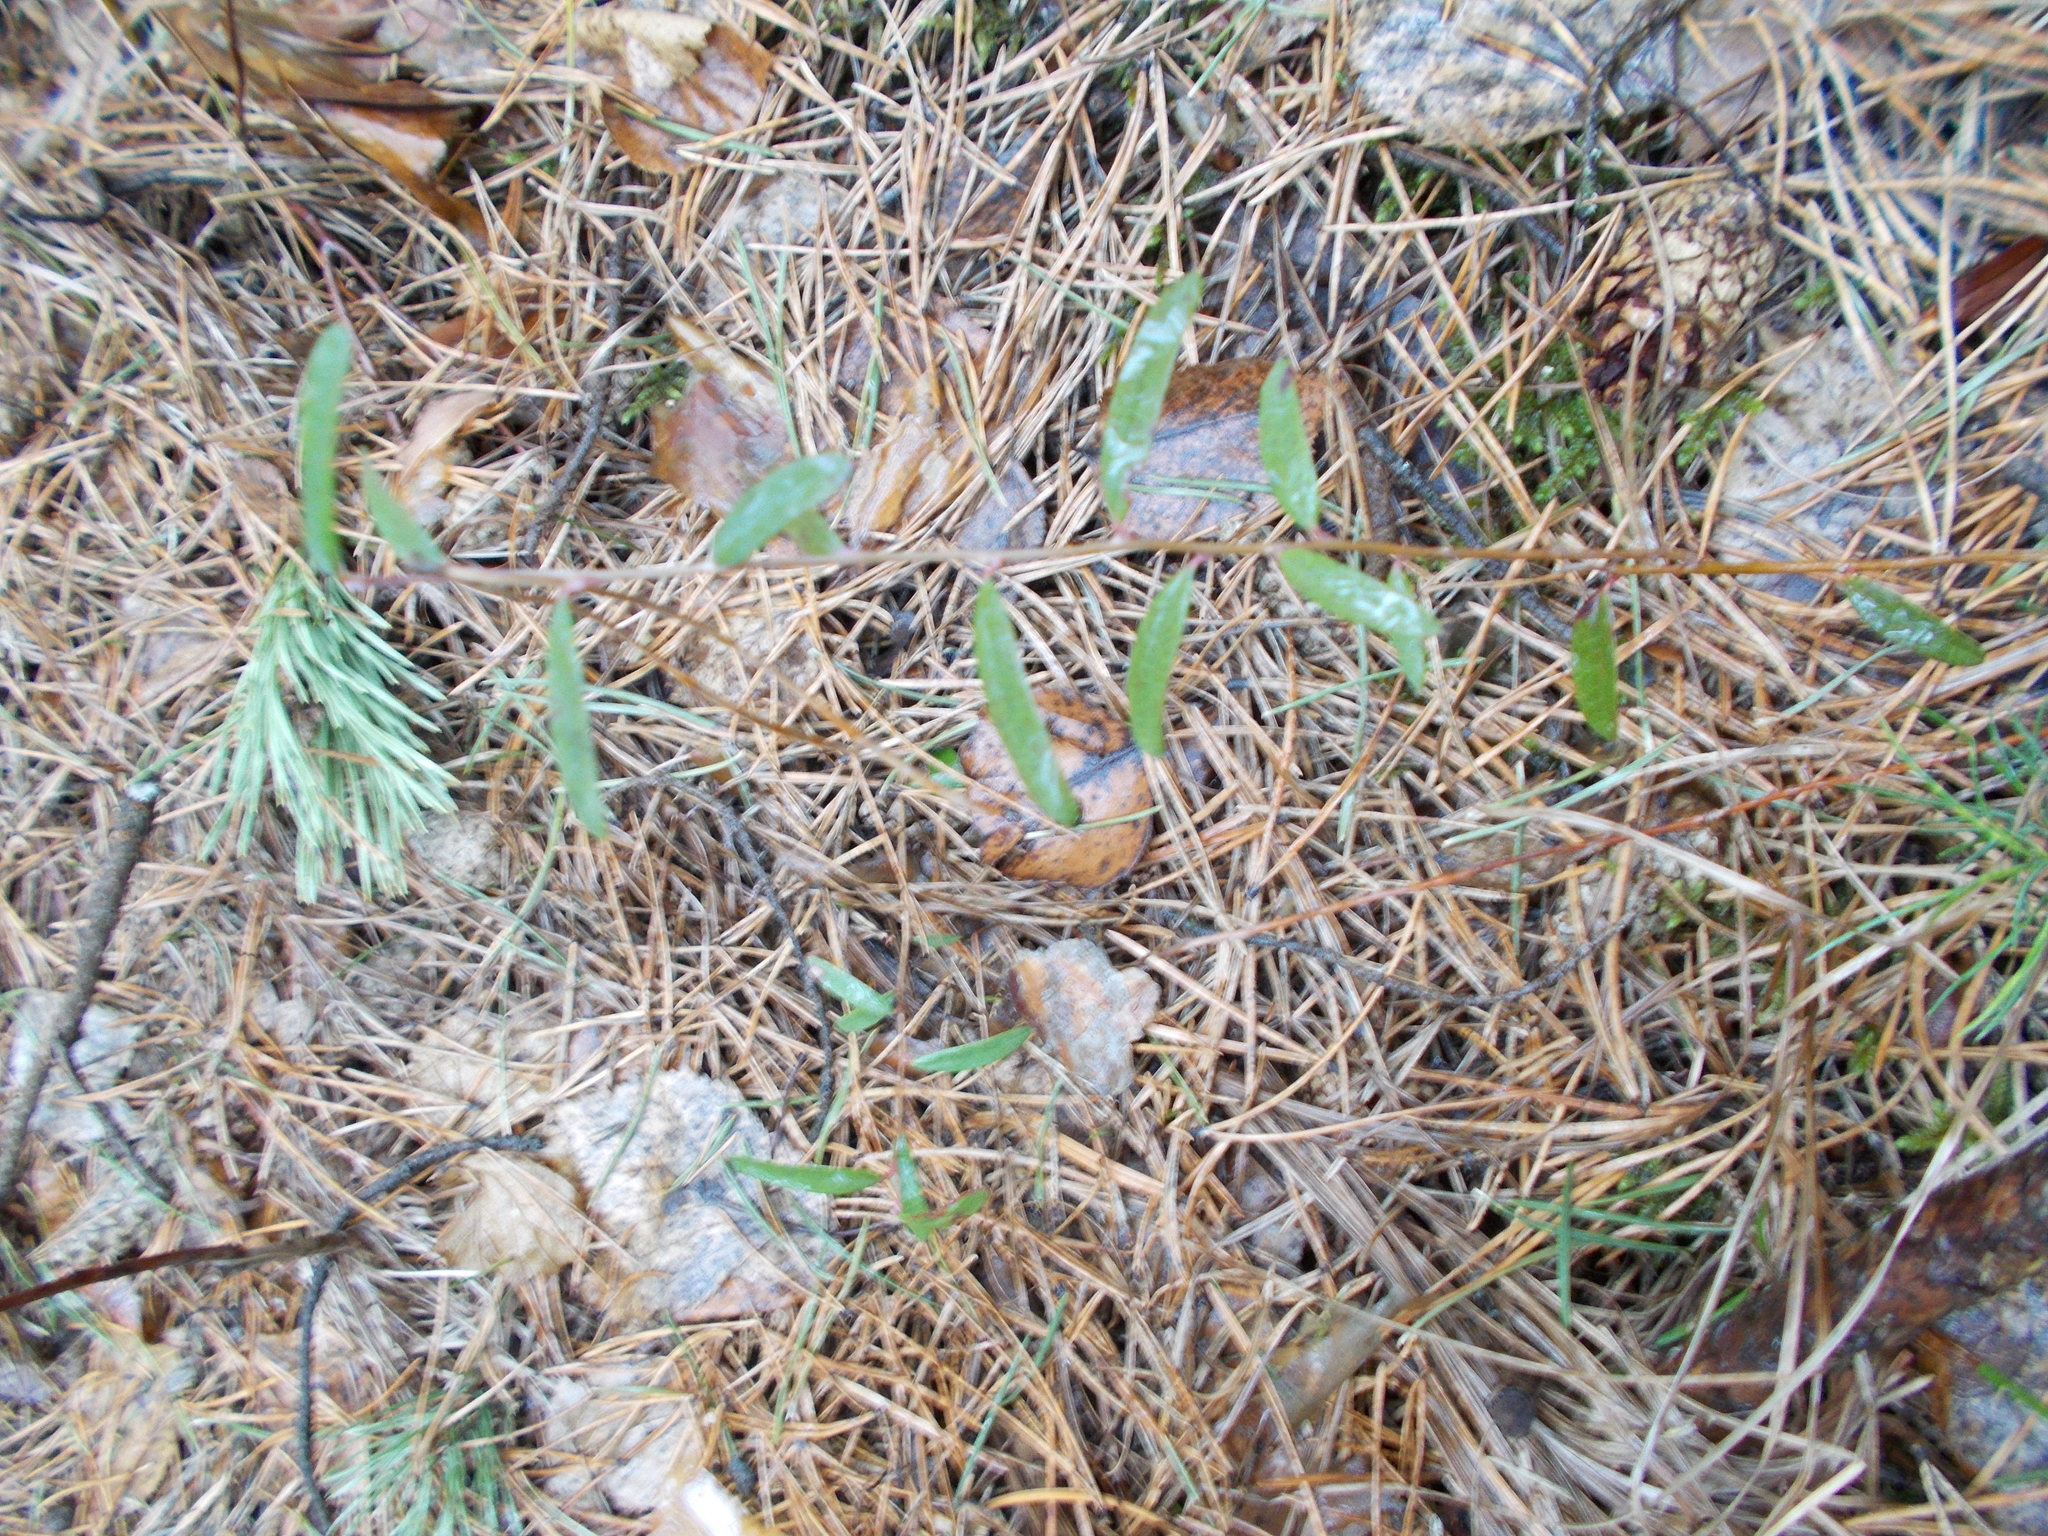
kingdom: Plantae
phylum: Tracheophyta
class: Magnoliopsida
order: Ericales
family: Ericaceae
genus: Andromeda
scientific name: Andromeda polifolia
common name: Bog-rosemary
